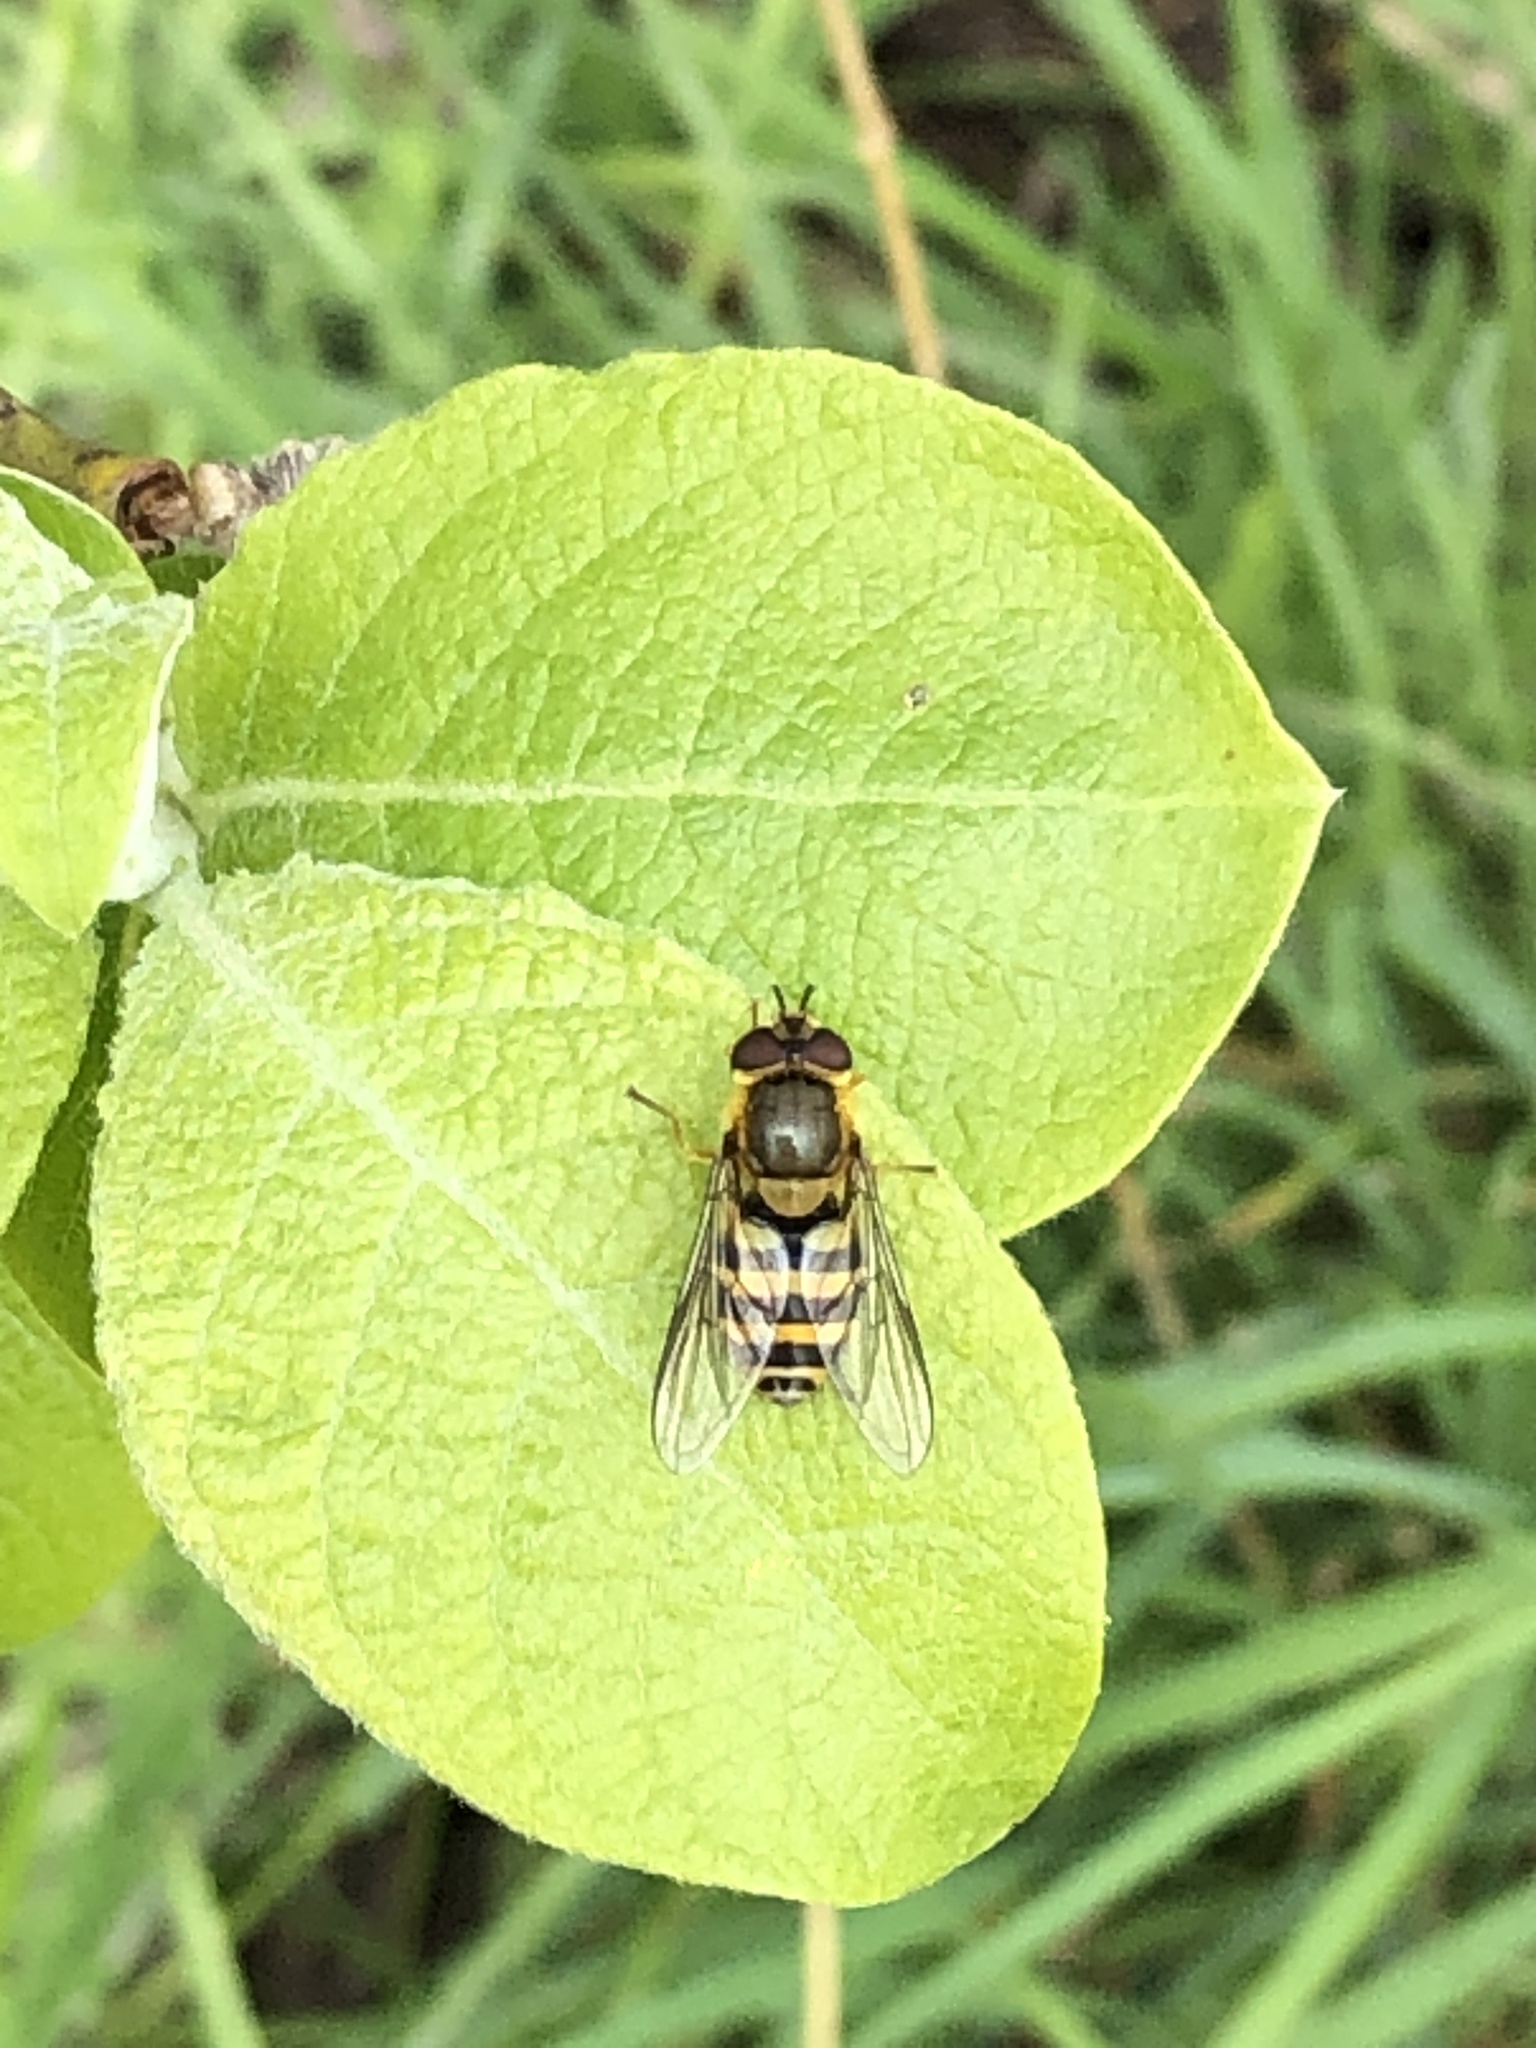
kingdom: Animalia
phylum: Arthropoda
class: Insecta
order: Diptera
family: Syrphidae
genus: Syrphus
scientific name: Syrphus
